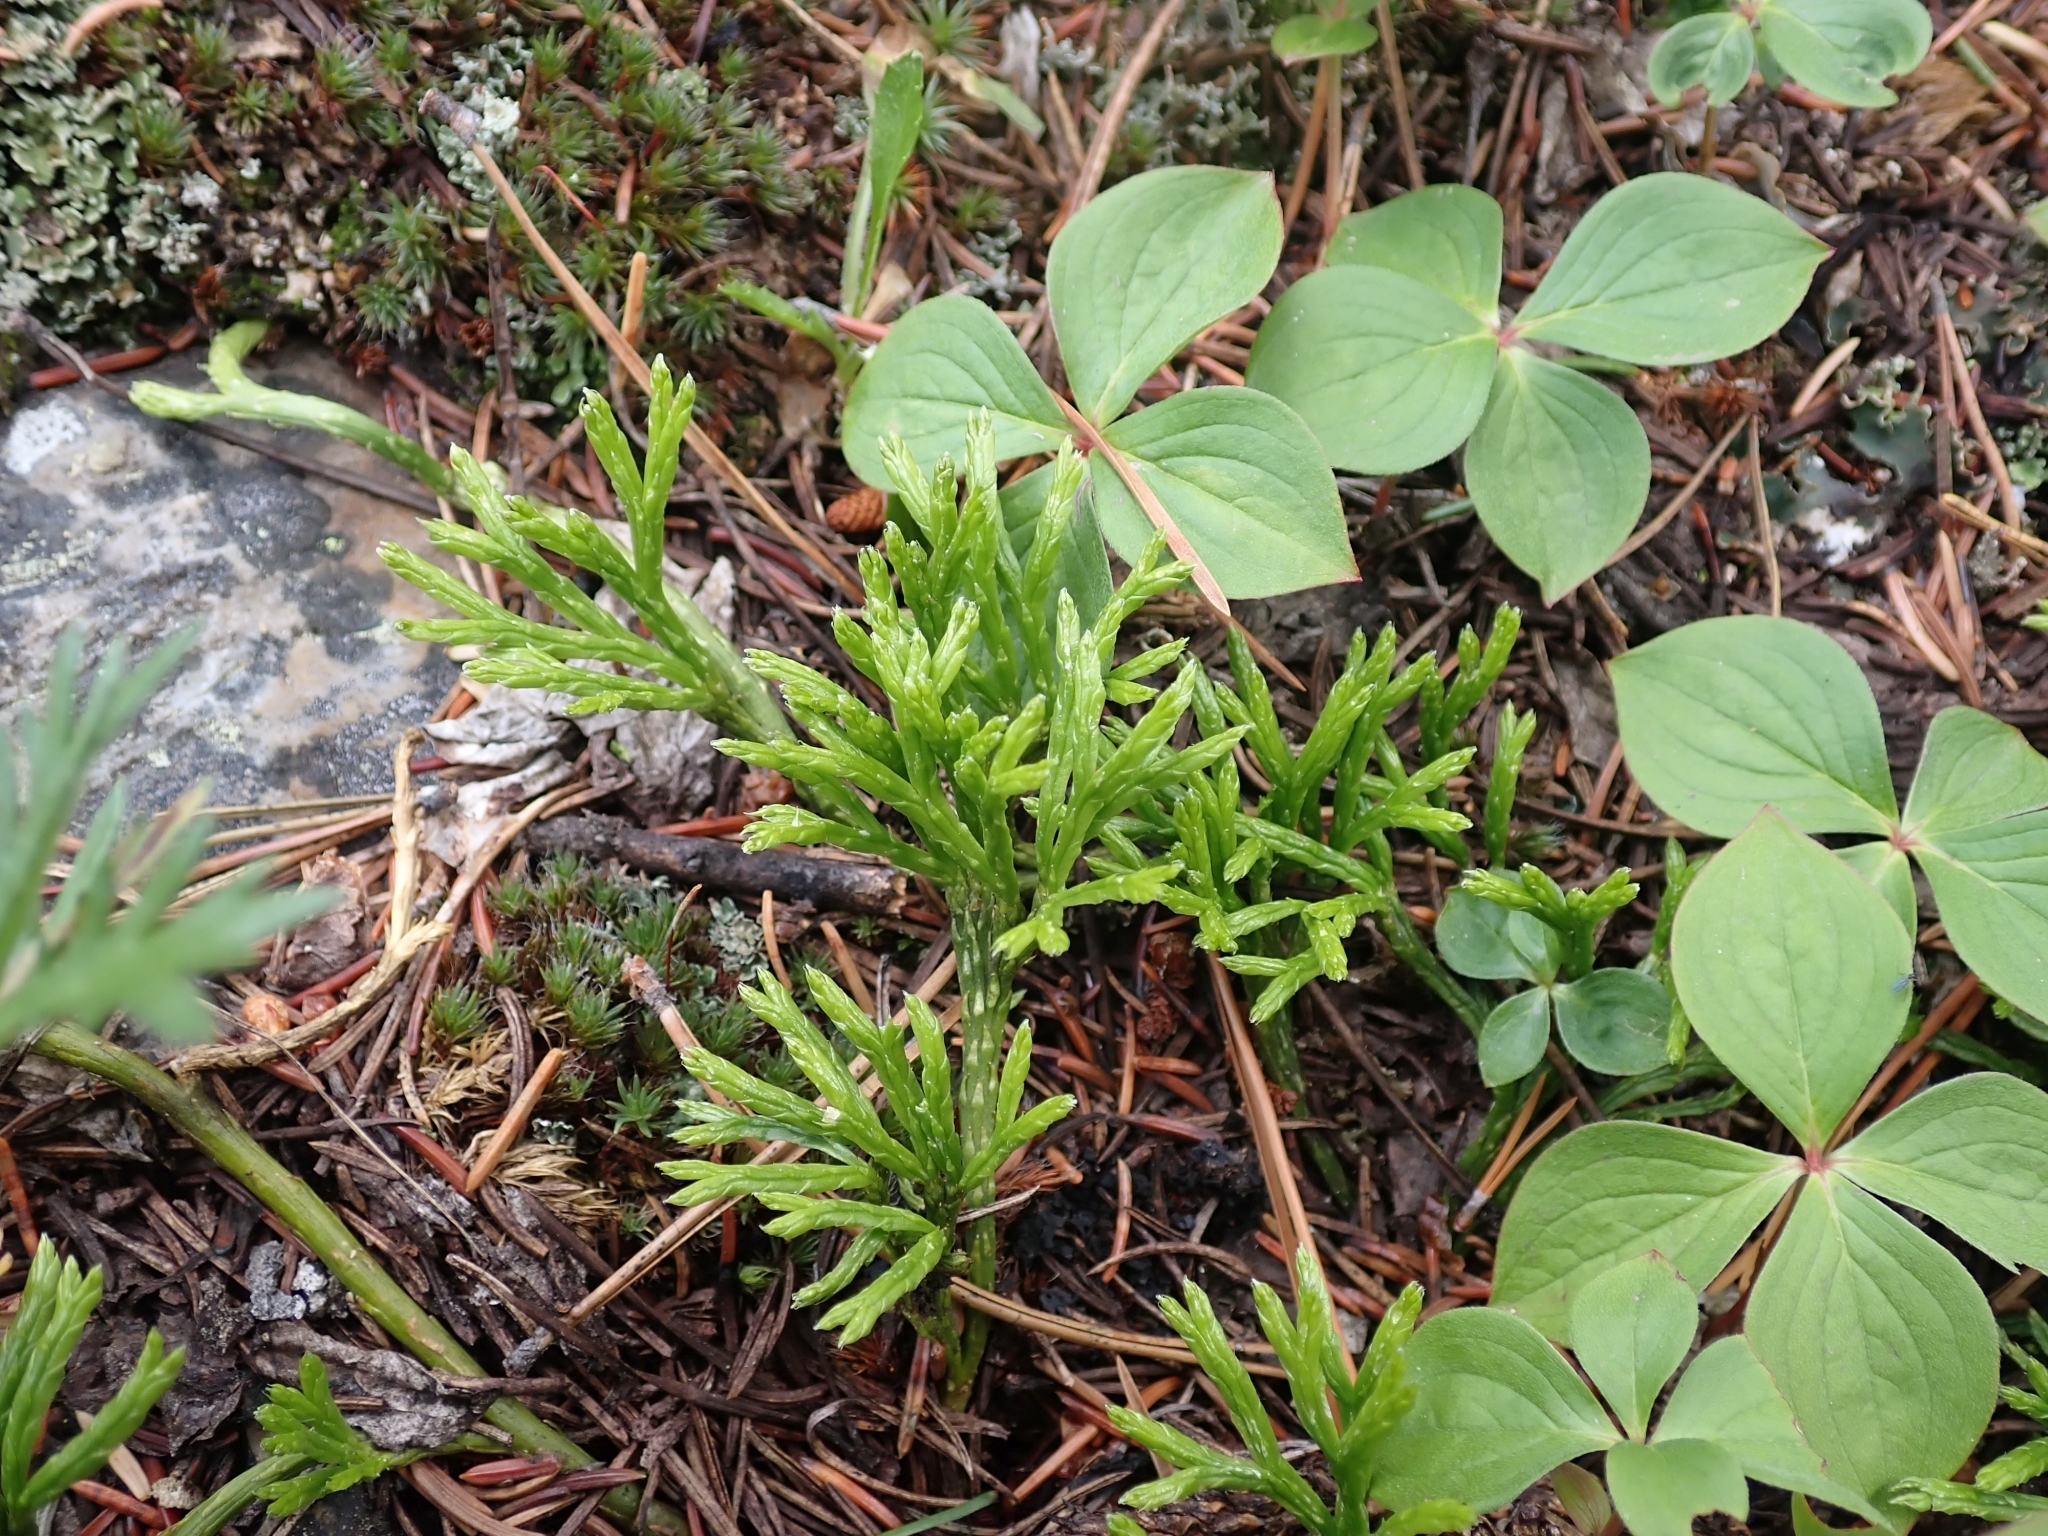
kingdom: Plantae
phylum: Tracheophyta
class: Lycopodiopsida
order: Lycopodiales
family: Lycopodiaceae
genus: Diphasiastrum
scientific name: Diphasiastrum complanatum
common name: Northern running-pine
